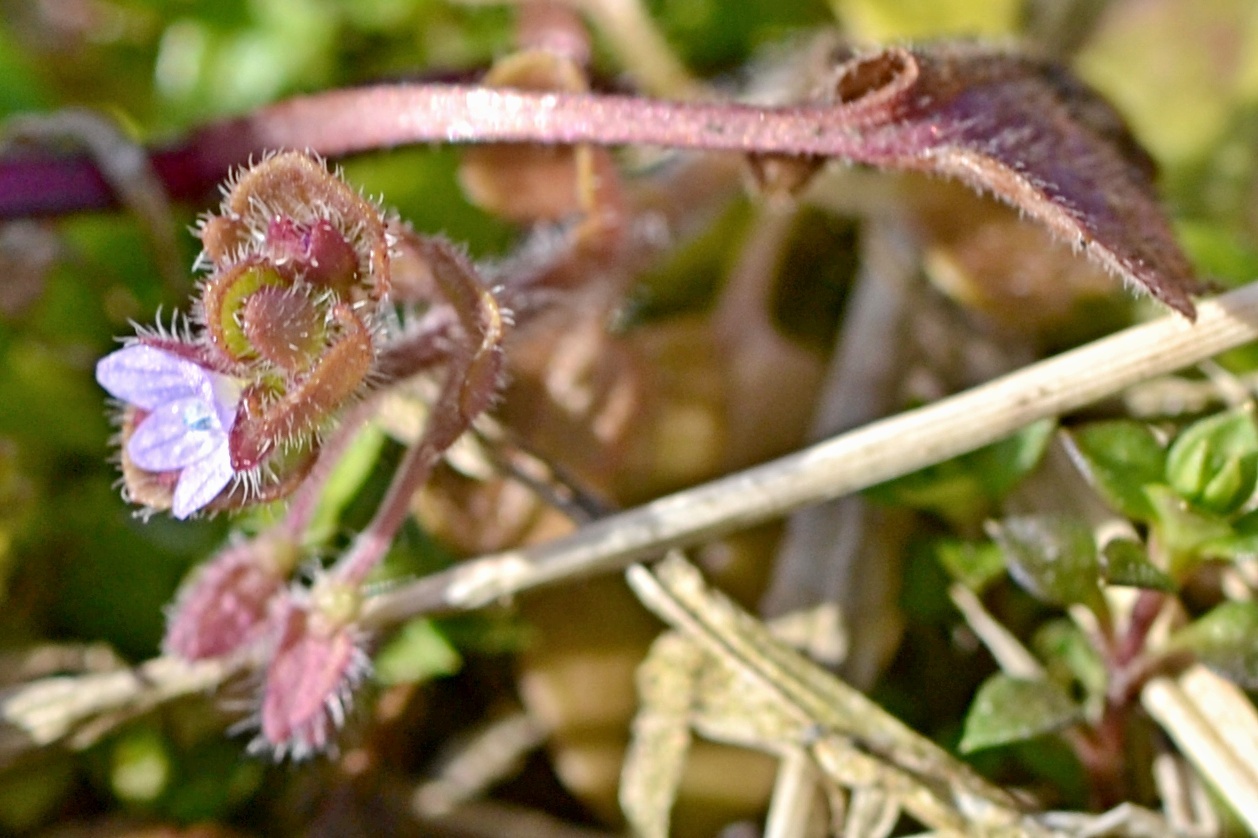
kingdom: Plantae
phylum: Tracheophyta
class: Magnoliopsida
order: Lamiales
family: Plantaginaceae
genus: Veronica
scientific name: Veronica sublobata
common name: False ivy-leaved speedwell
